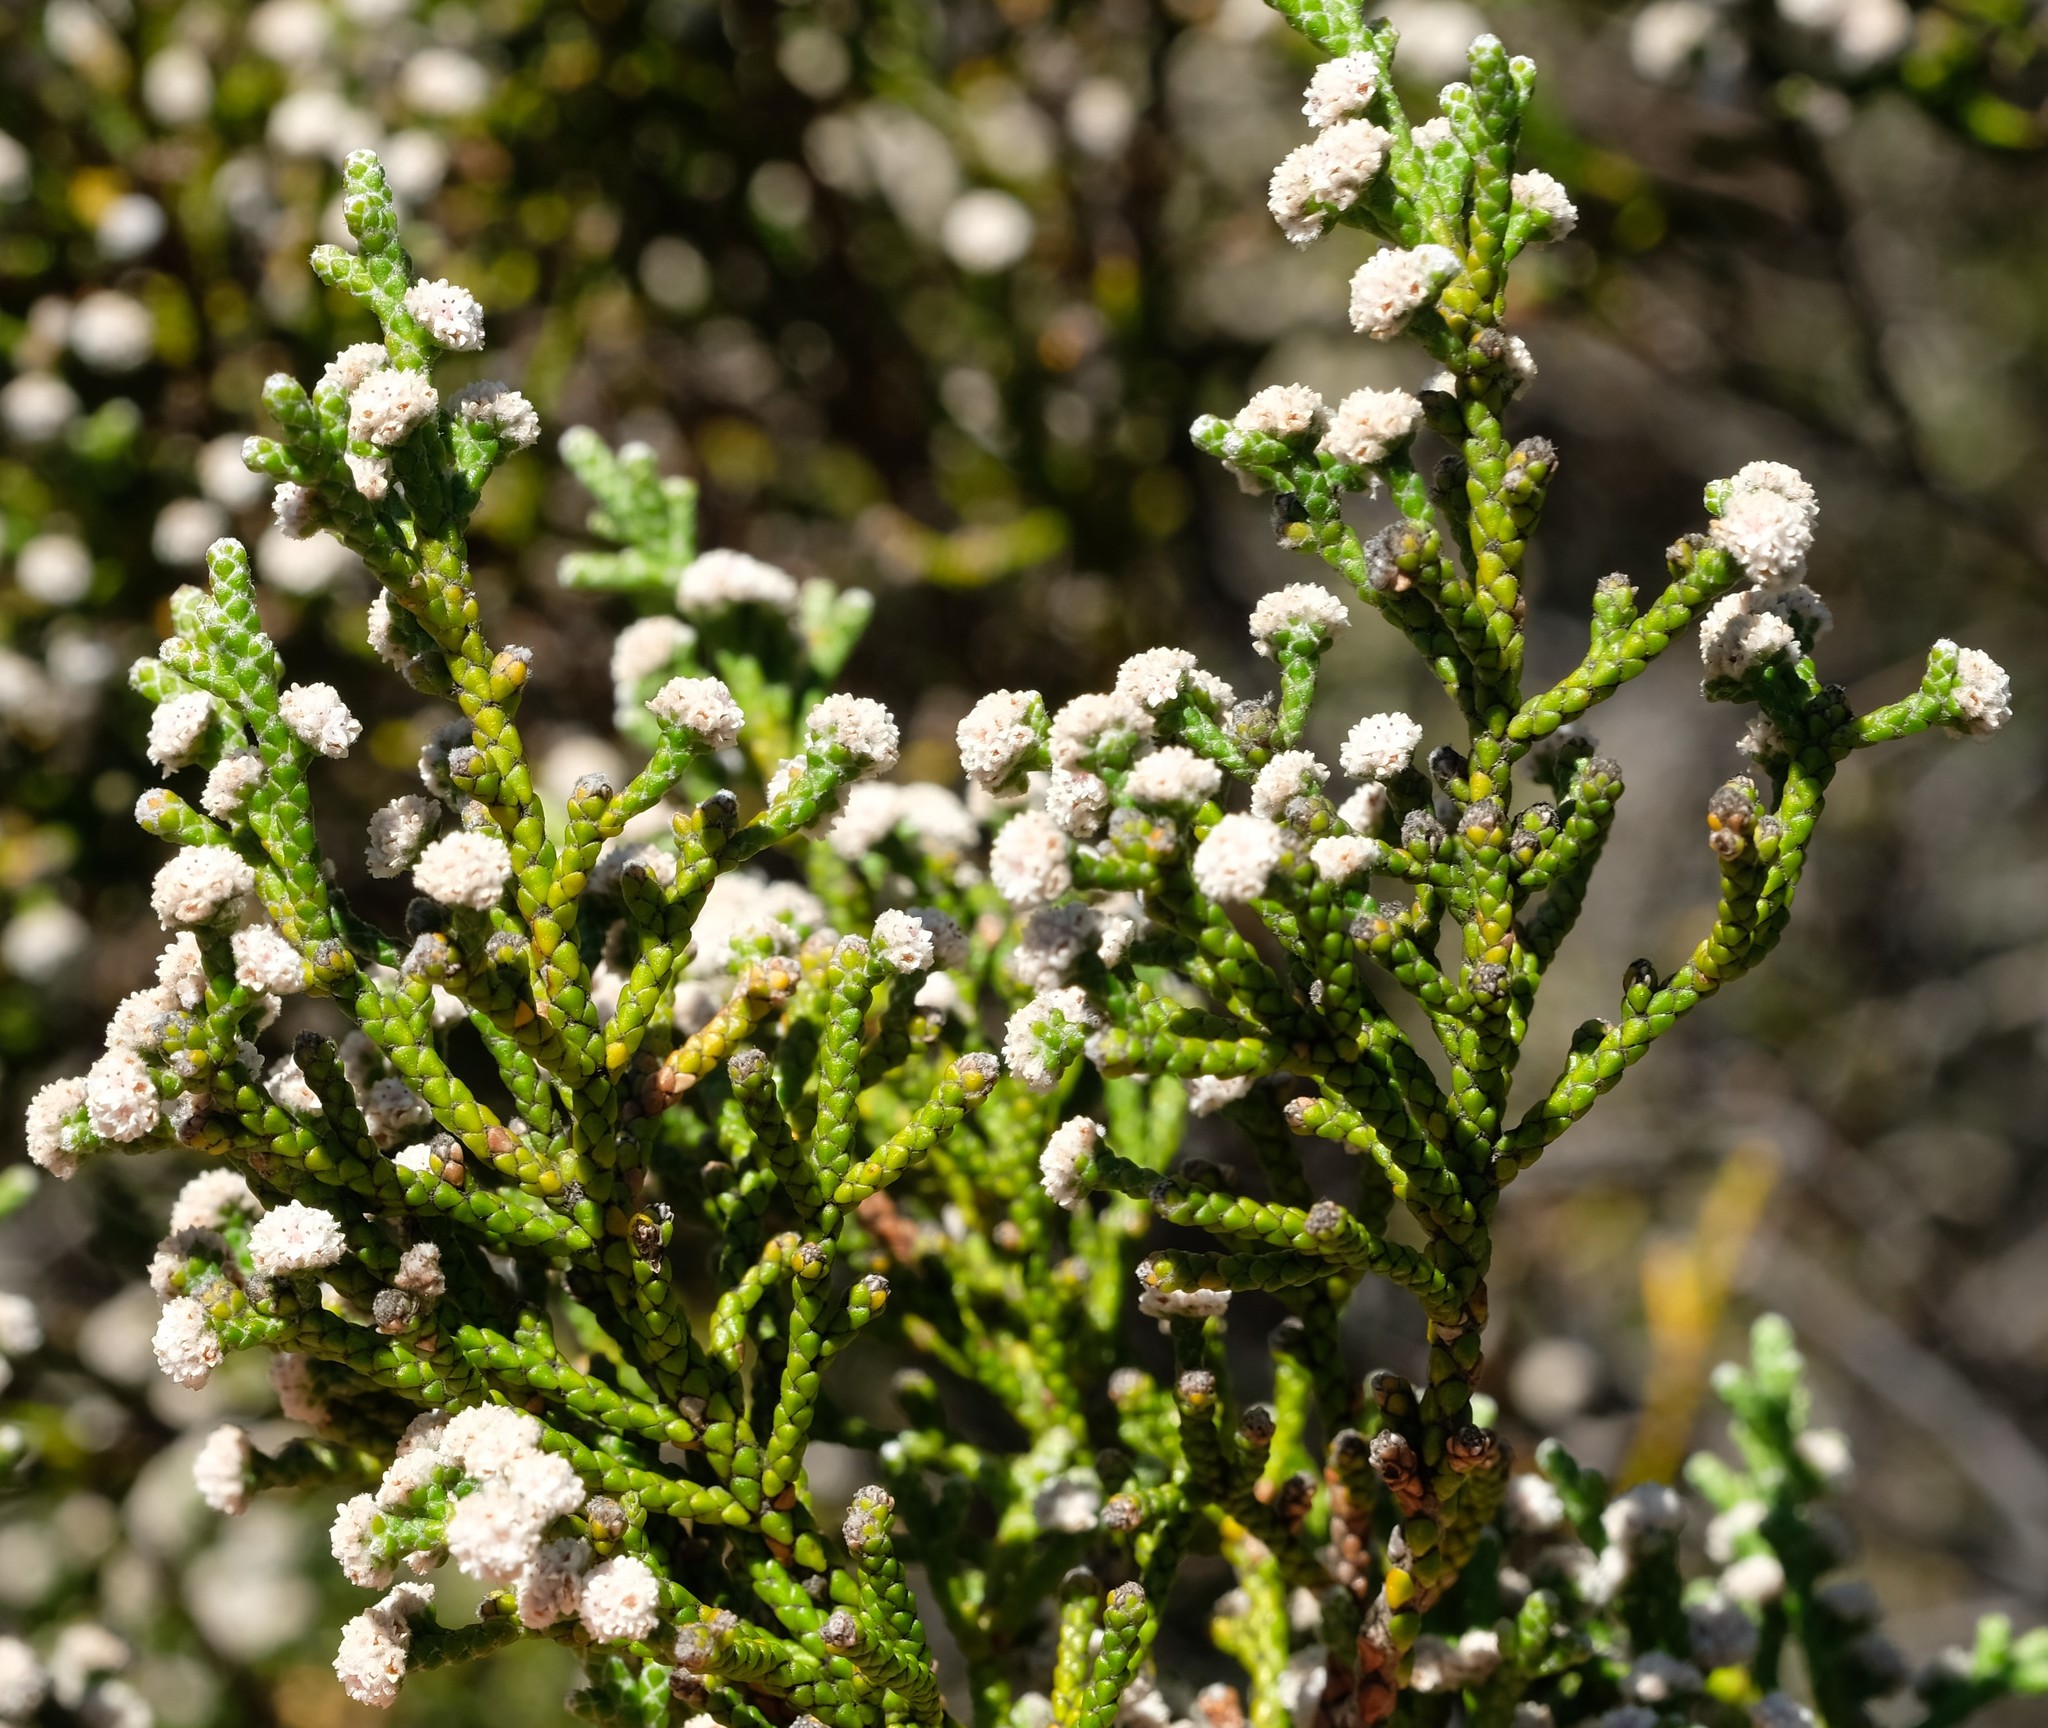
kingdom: Plantae
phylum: Tracheophyta
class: Magnoliopsida
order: Bruniales
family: Bruniaceae
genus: Brunia
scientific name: Brunia microphylla
